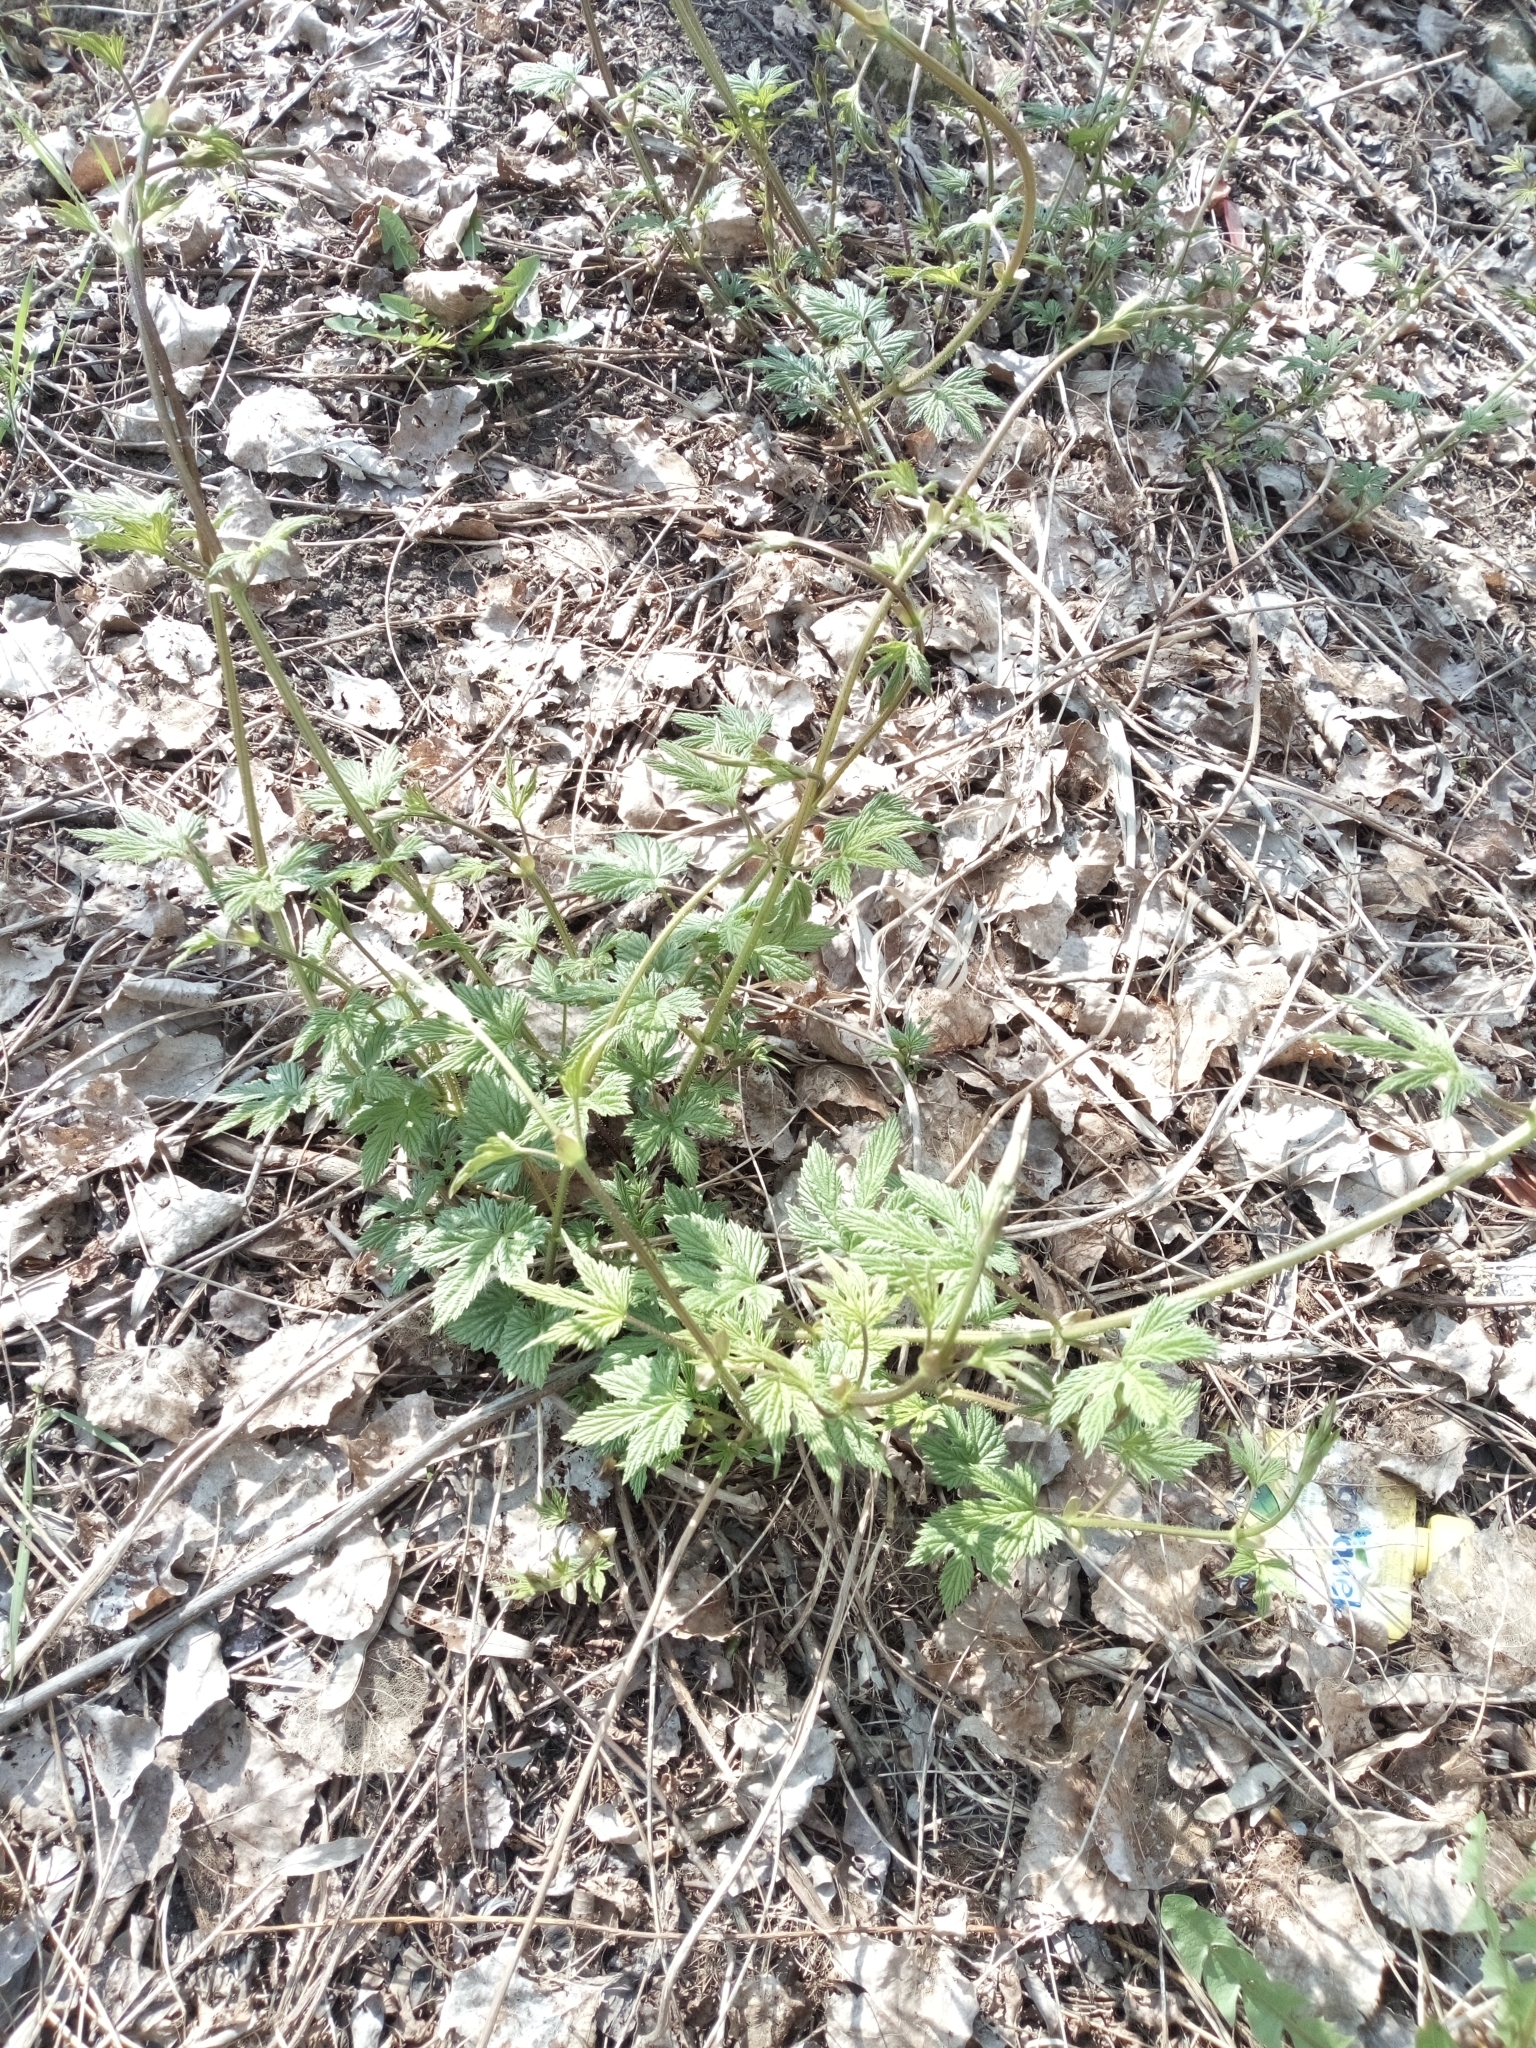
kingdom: Plantae
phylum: Tracheophyta
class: Magnoliopsida
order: Rosales
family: Cannabaceae
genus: Humulus
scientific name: Humulus lupulus
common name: Hop
